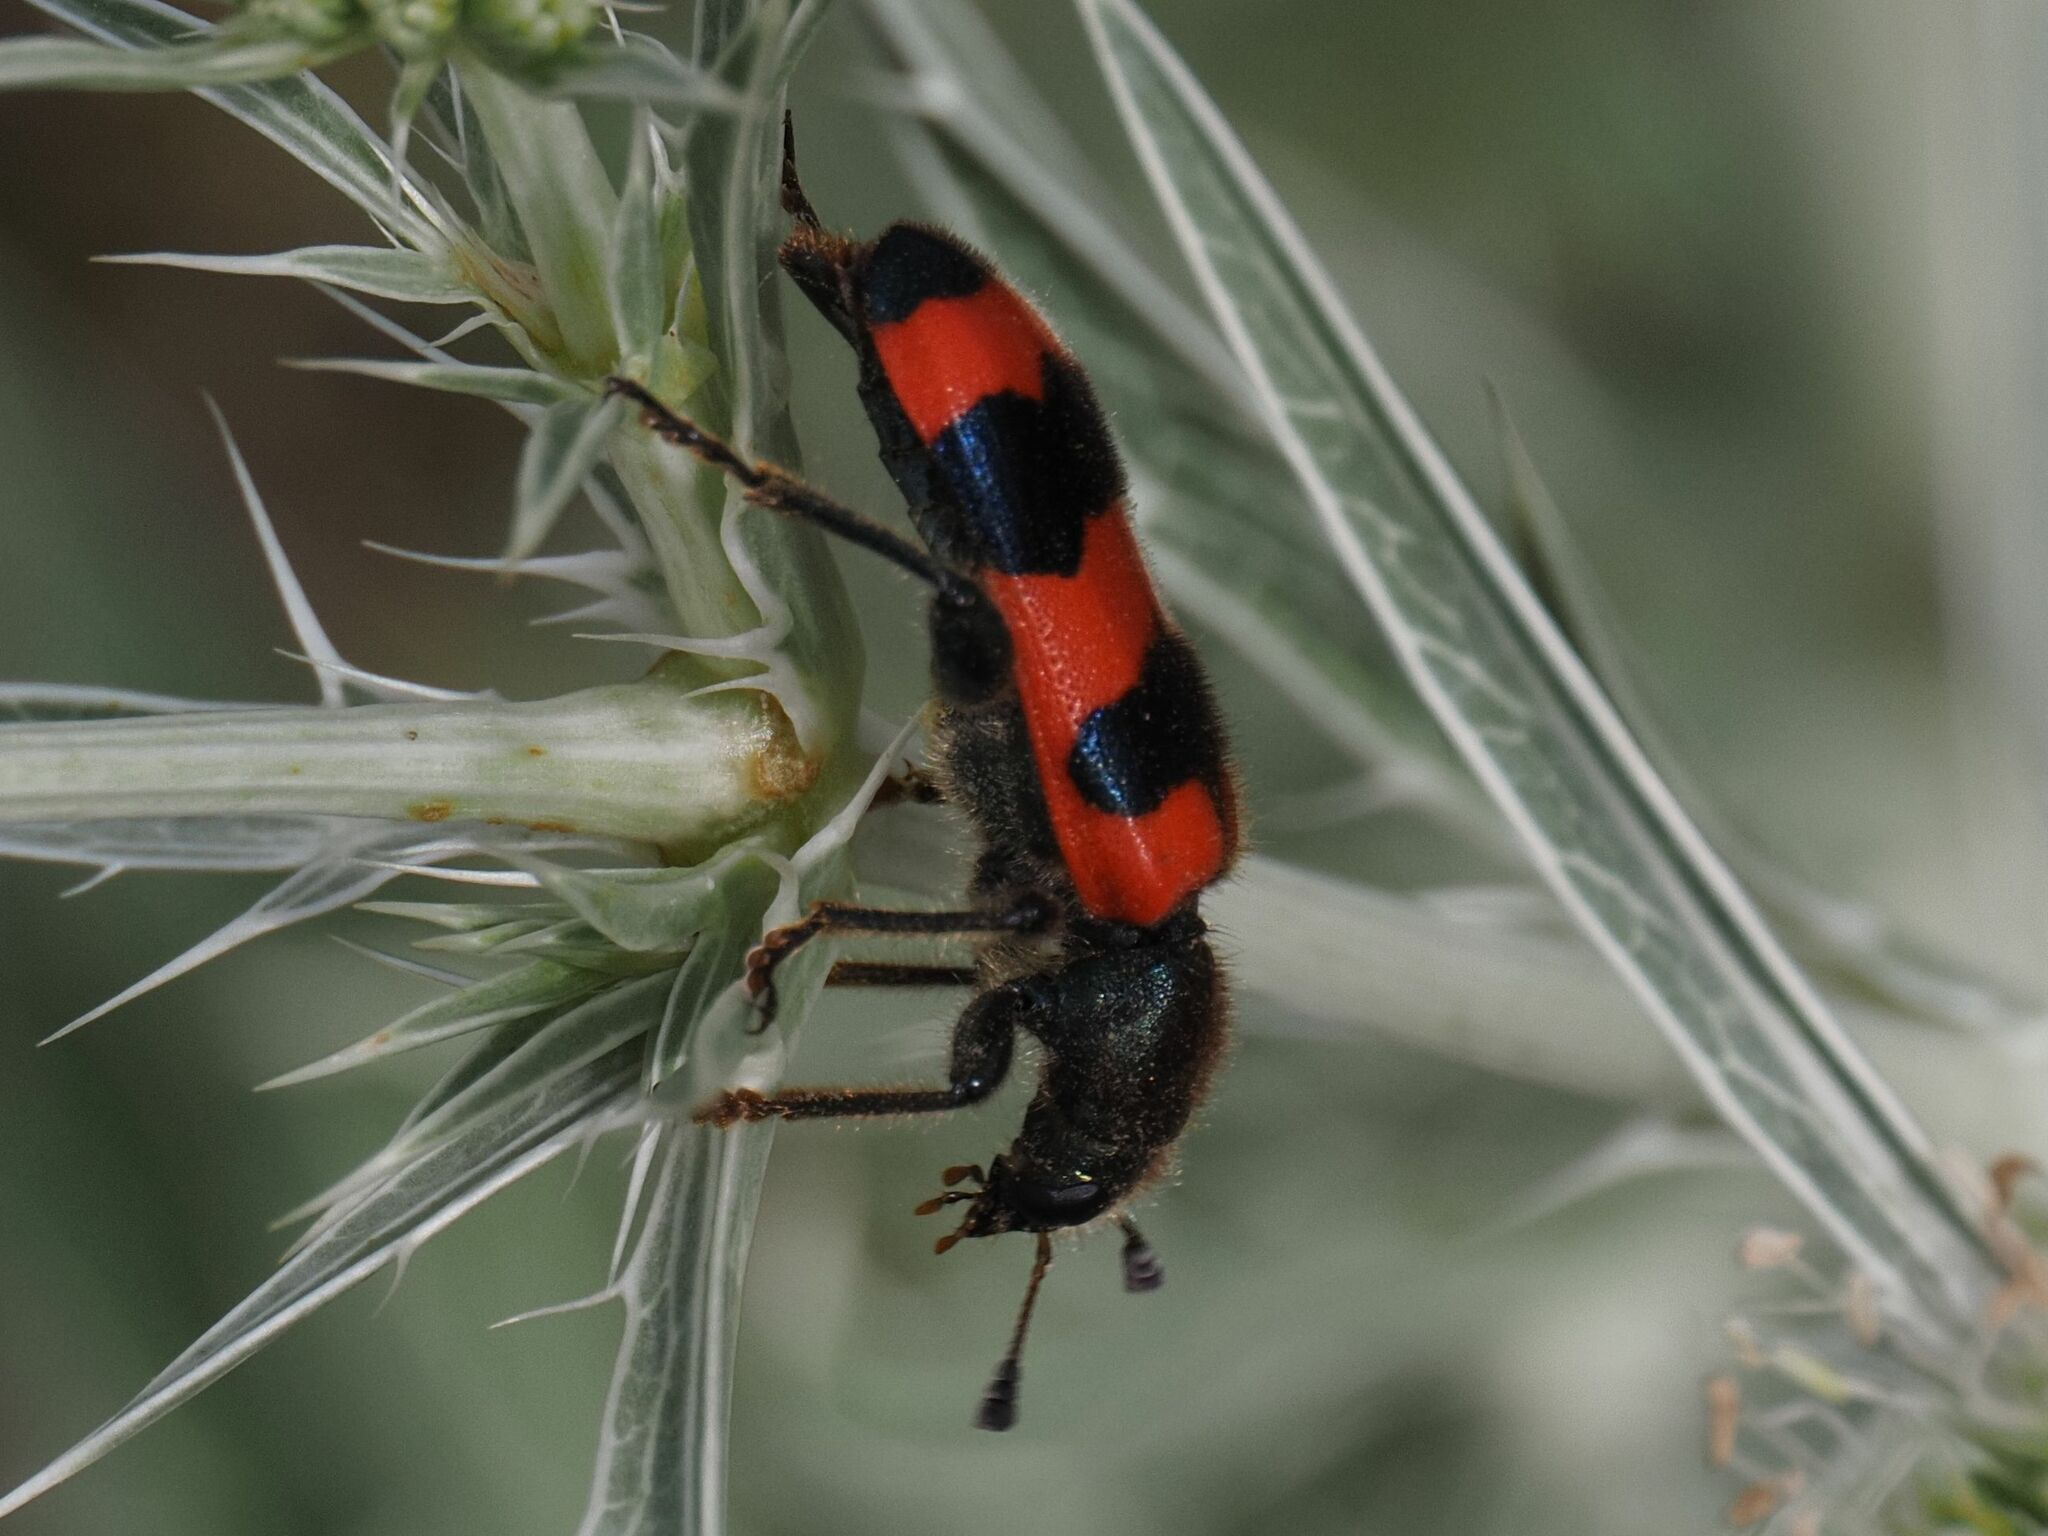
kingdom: Animalia
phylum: Arthropoda
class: Insecta
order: Coleoptera
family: Cleridae
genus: Trichodes
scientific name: Trichodes apiarius
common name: Bee-eating beetle
